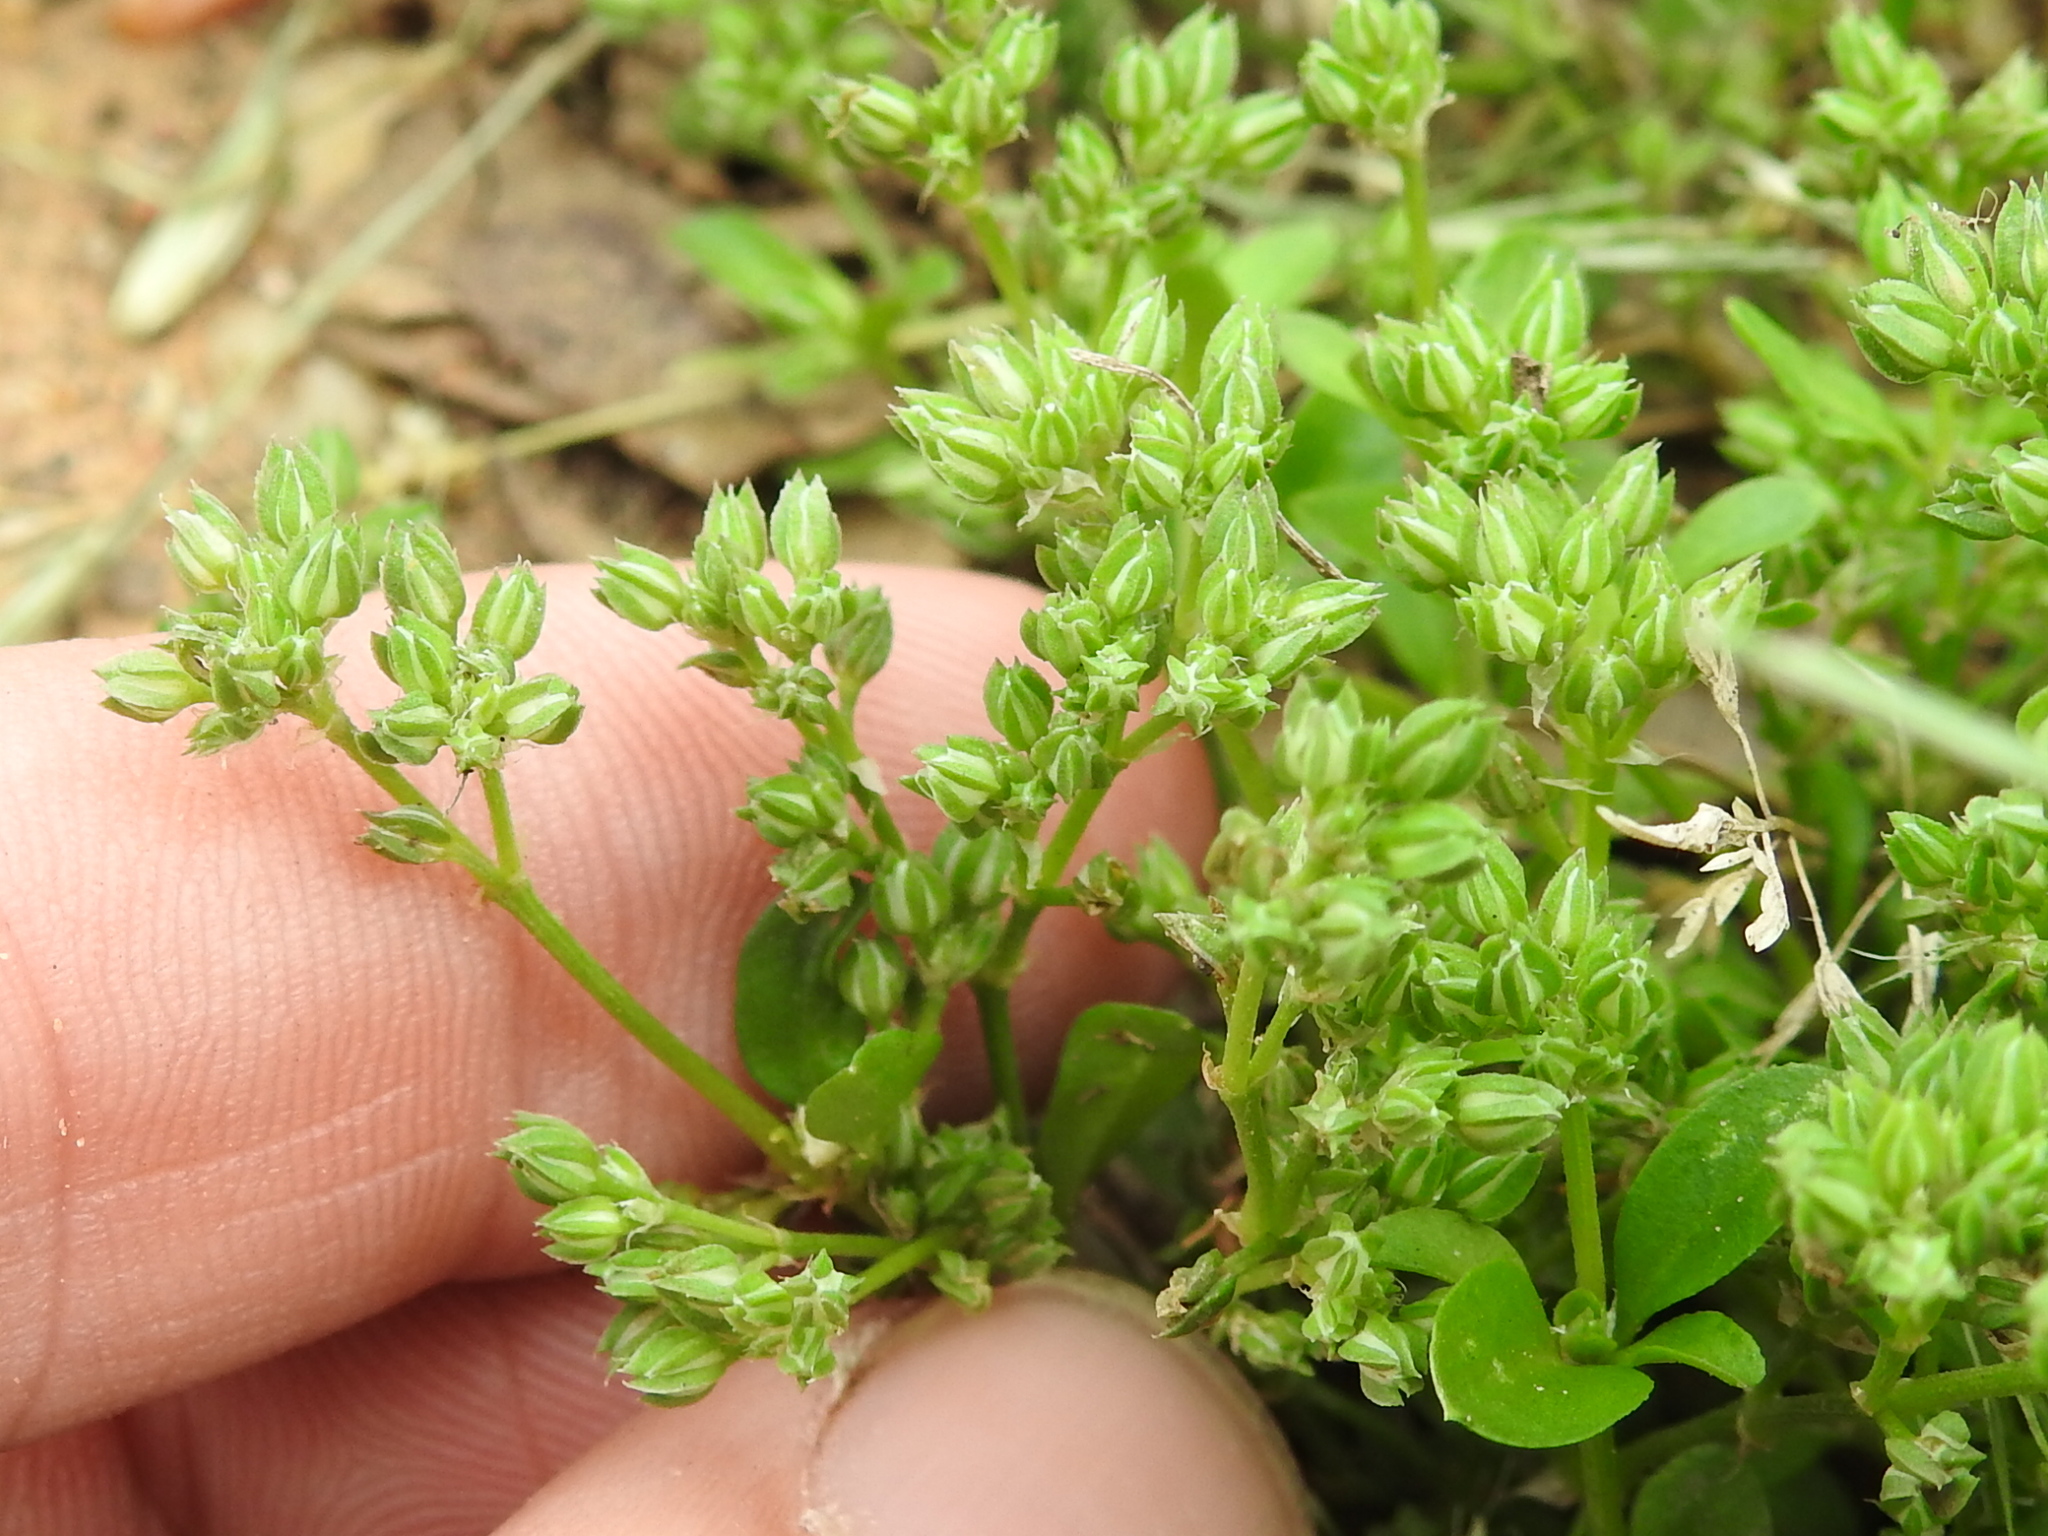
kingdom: Plantae
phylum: Tracheophyta
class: Magnoliopsida
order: Caryophyllales
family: Caryophyllaceae
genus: Polycarpon
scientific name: Polycarpon tetraphyllum
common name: Four-leaved all-seed
